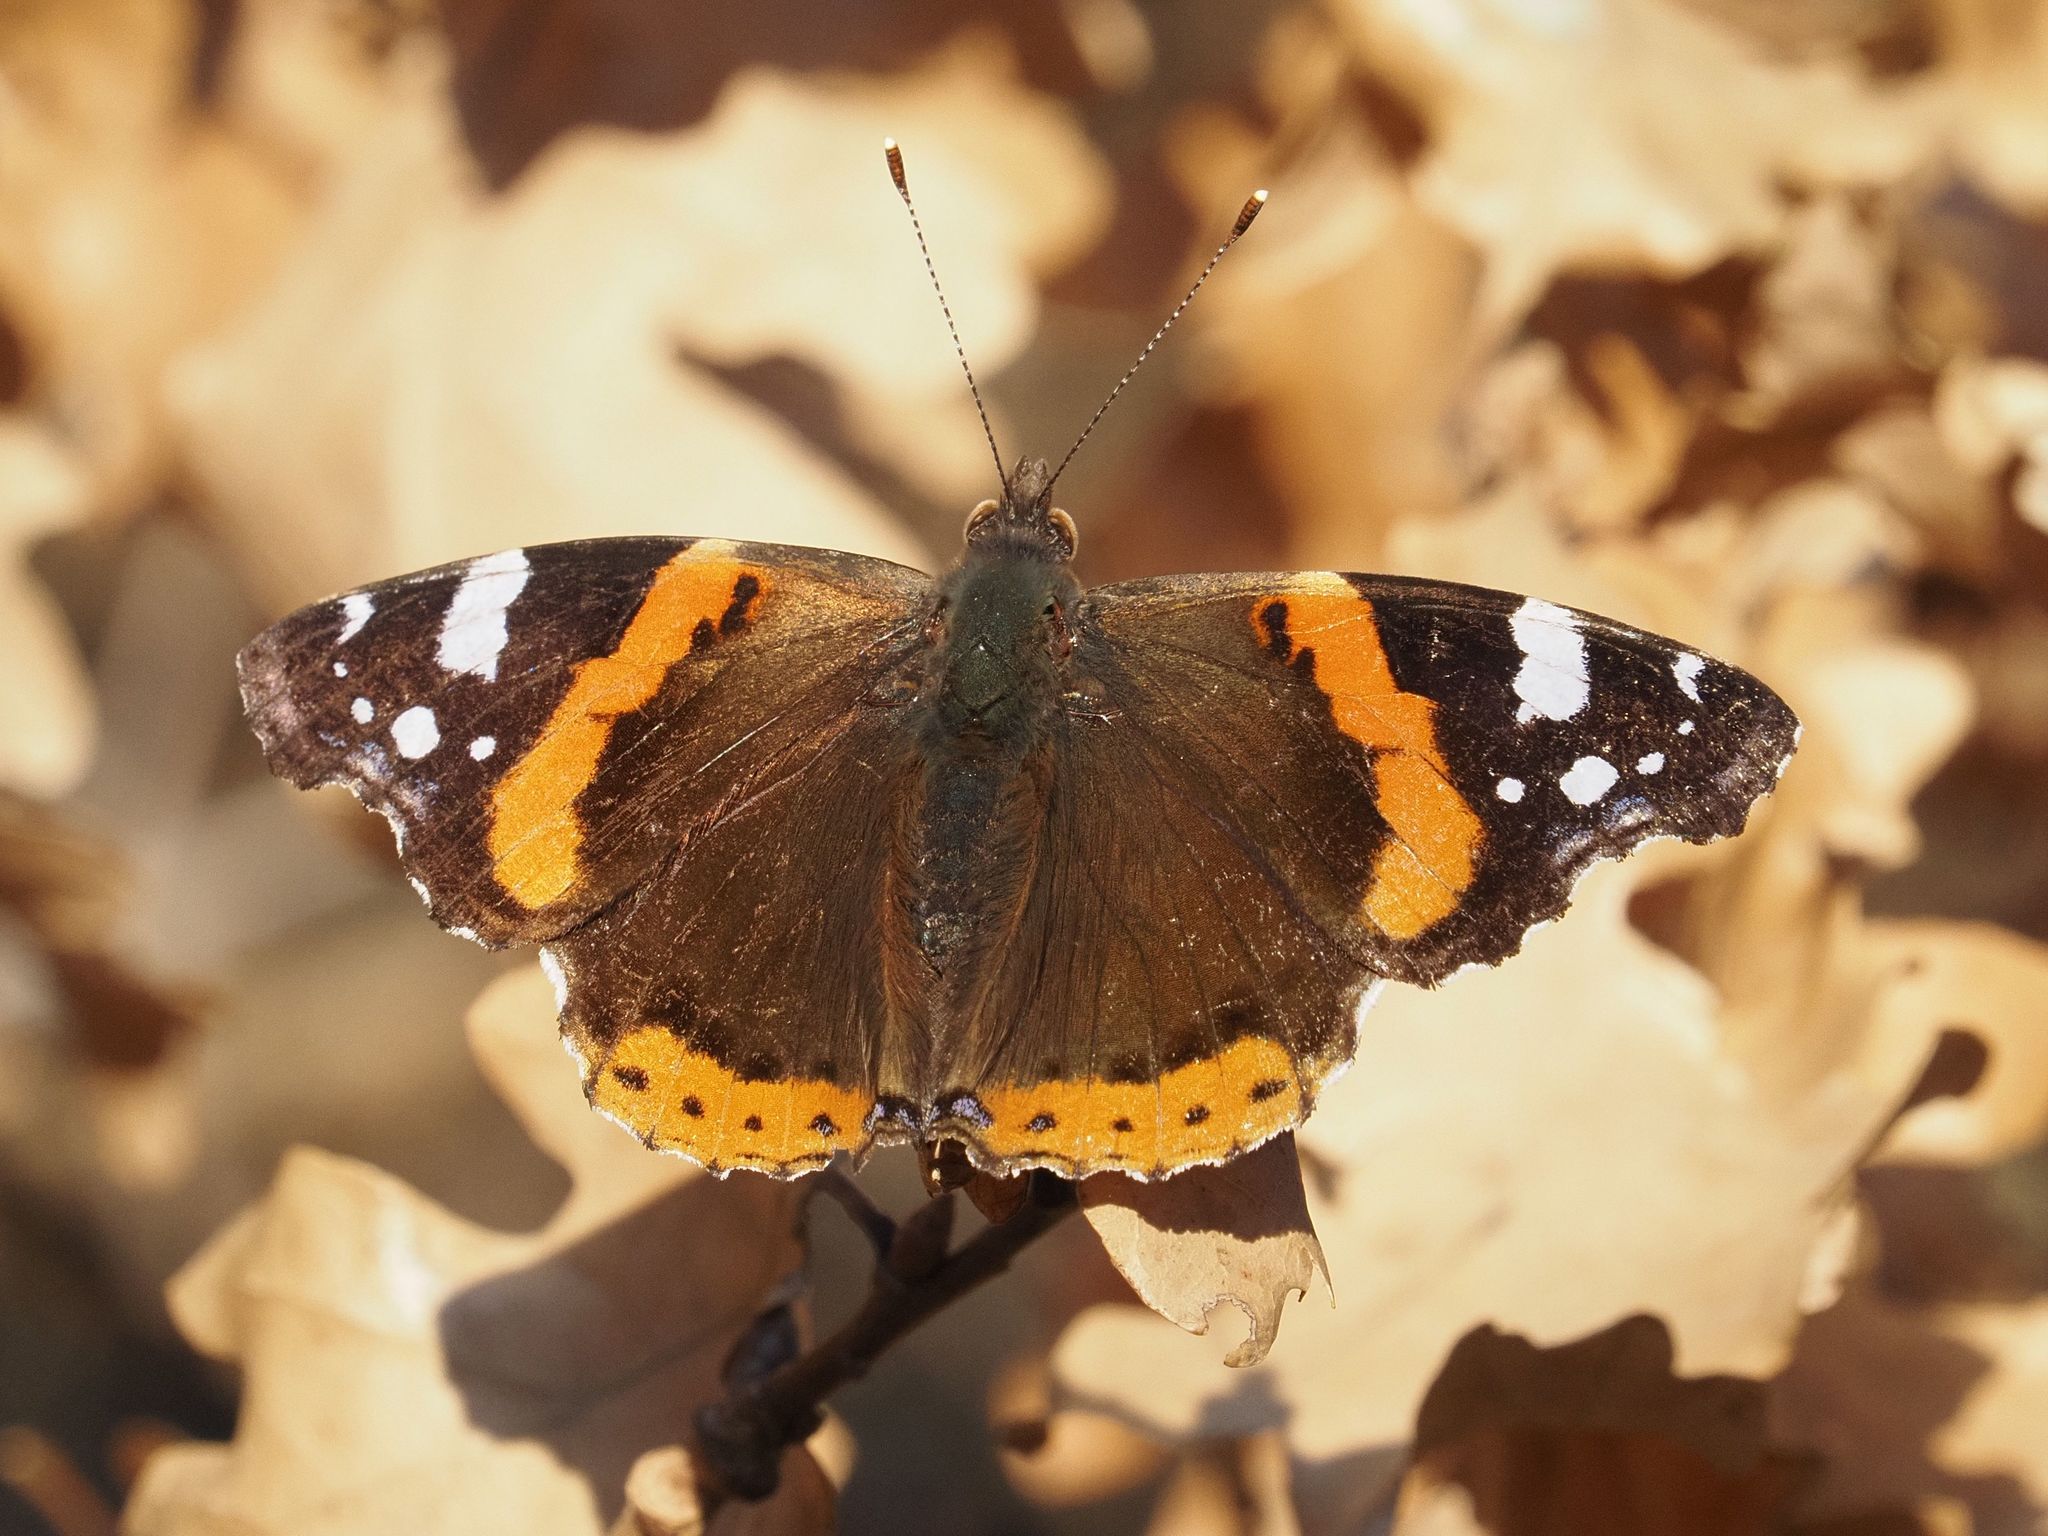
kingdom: Animalia
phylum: Arthropoda
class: Insecta
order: Lepidoptera
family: Nymphalidae
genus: Vanessa
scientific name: Vanessa atalanta
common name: Red admiral
